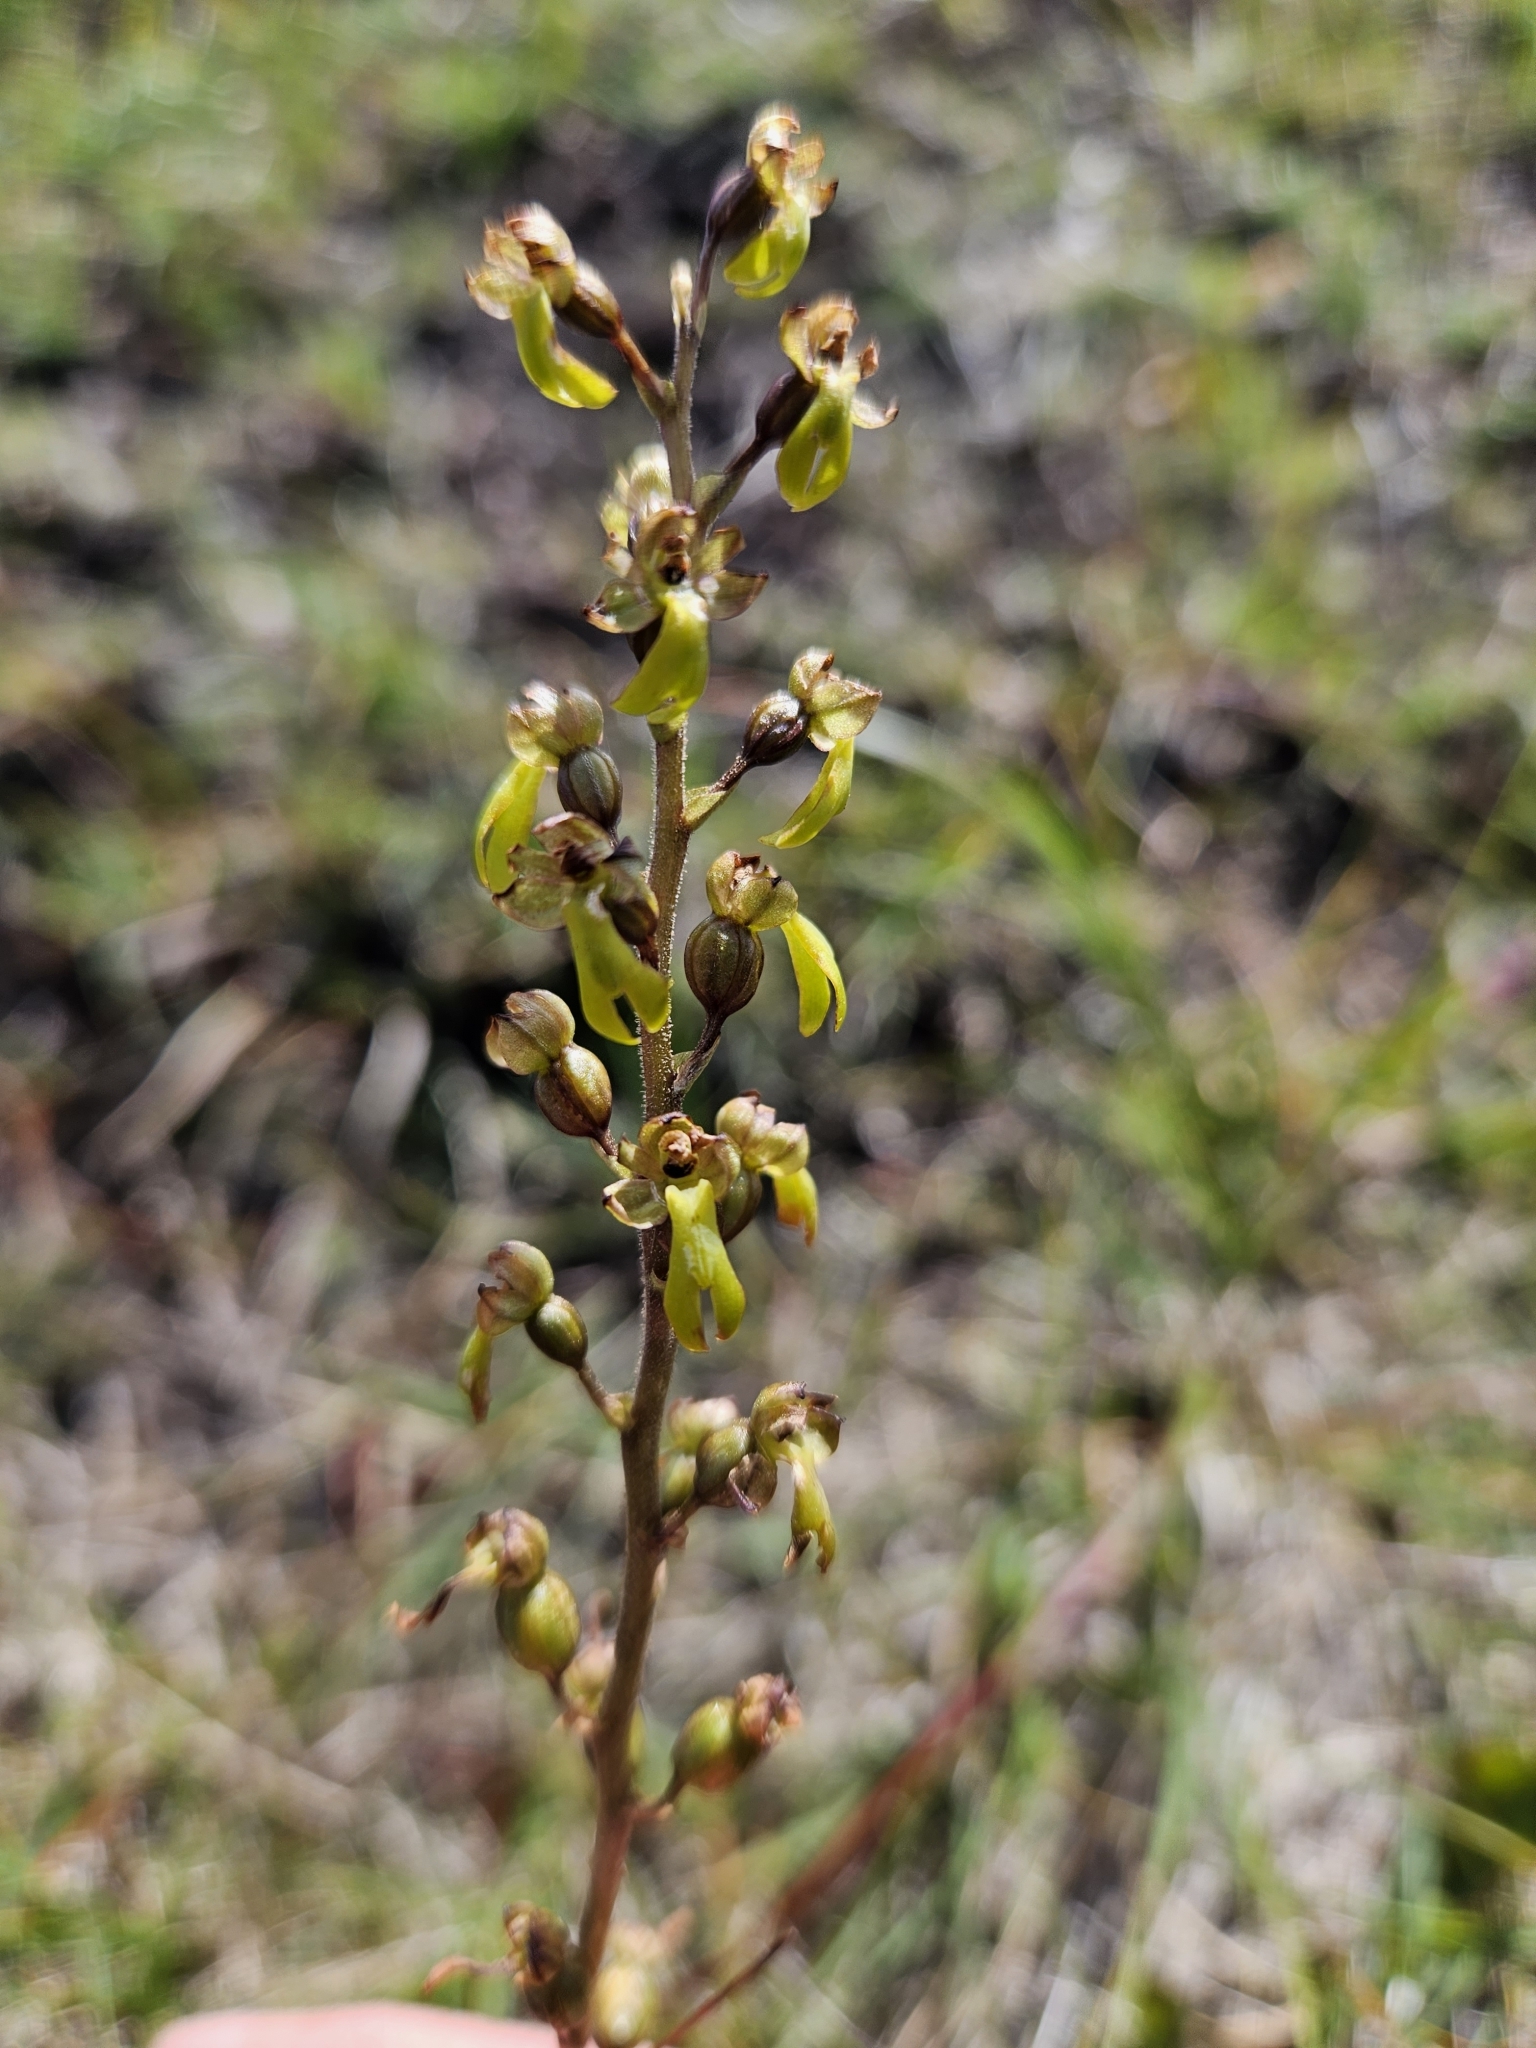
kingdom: Plantae
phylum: Tracheophyta
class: Liliopsida
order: Asparagales
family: Orchidaceae
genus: Neottia
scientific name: Neottia ovata
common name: Common twayblade
